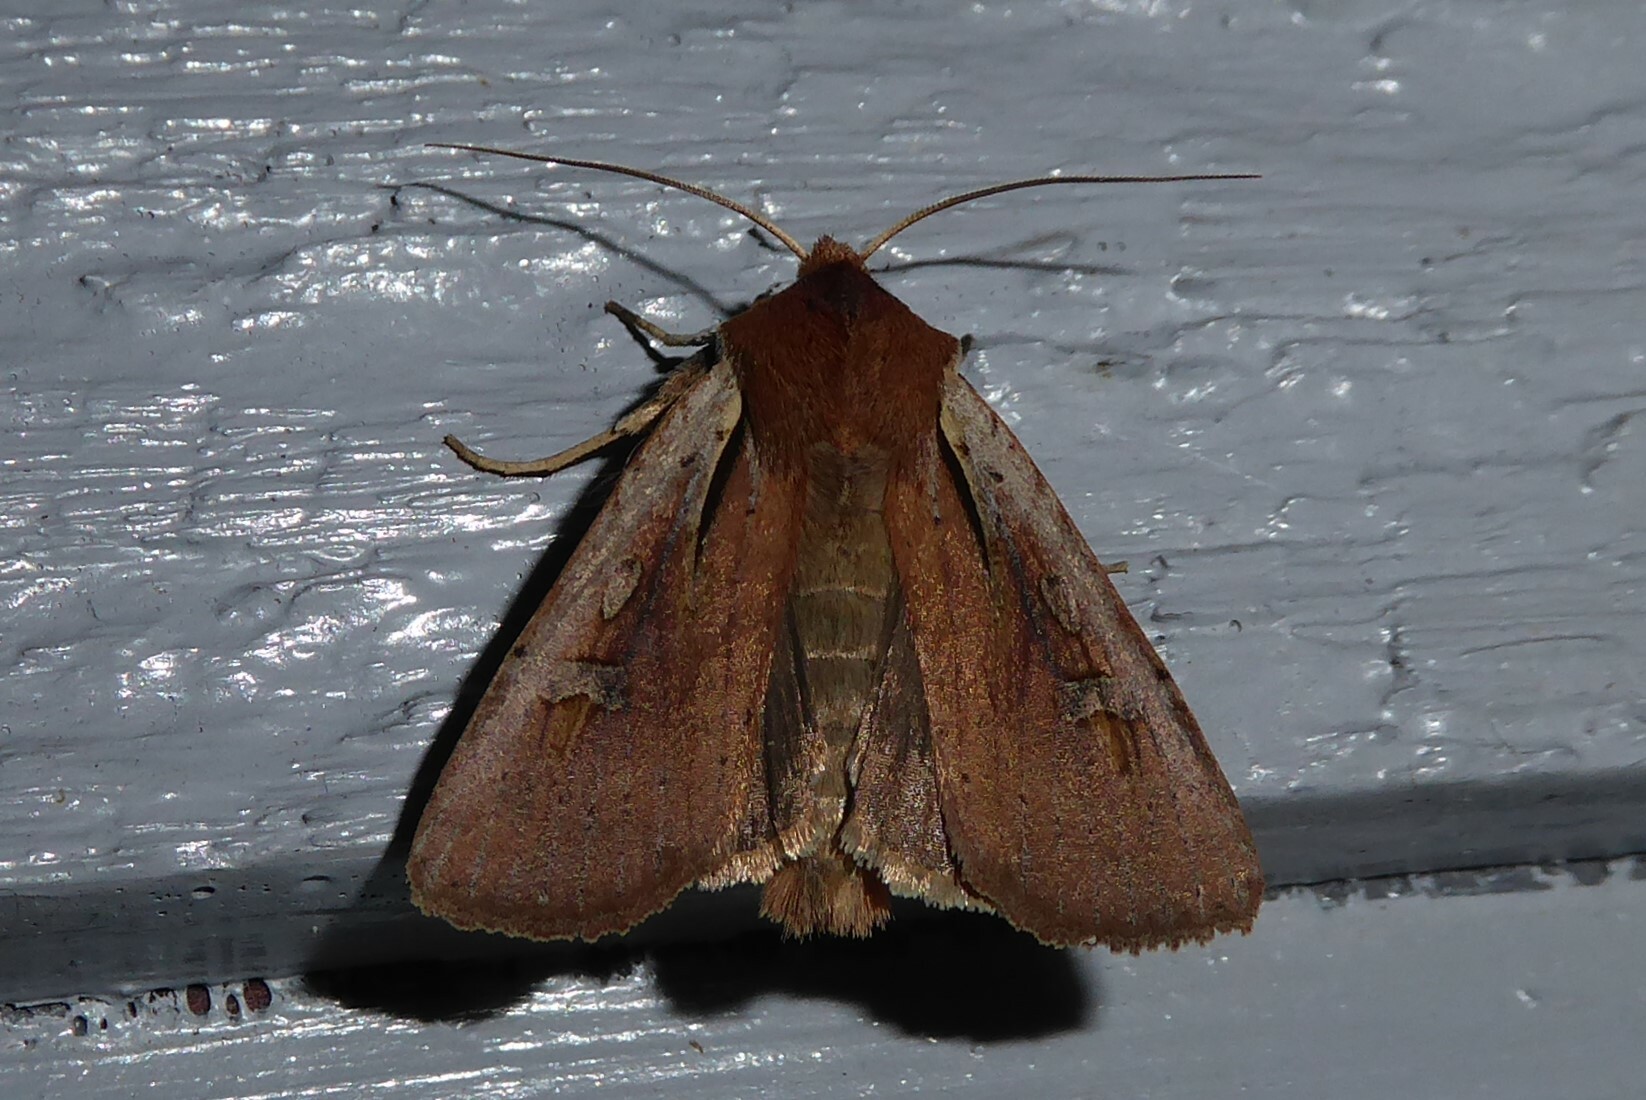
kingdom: Animalia
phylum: Arthropoda
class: Insecta
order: Lepidoptera
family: Noctuidae
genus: Ichneutica
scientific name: Ichneutica atristriga
